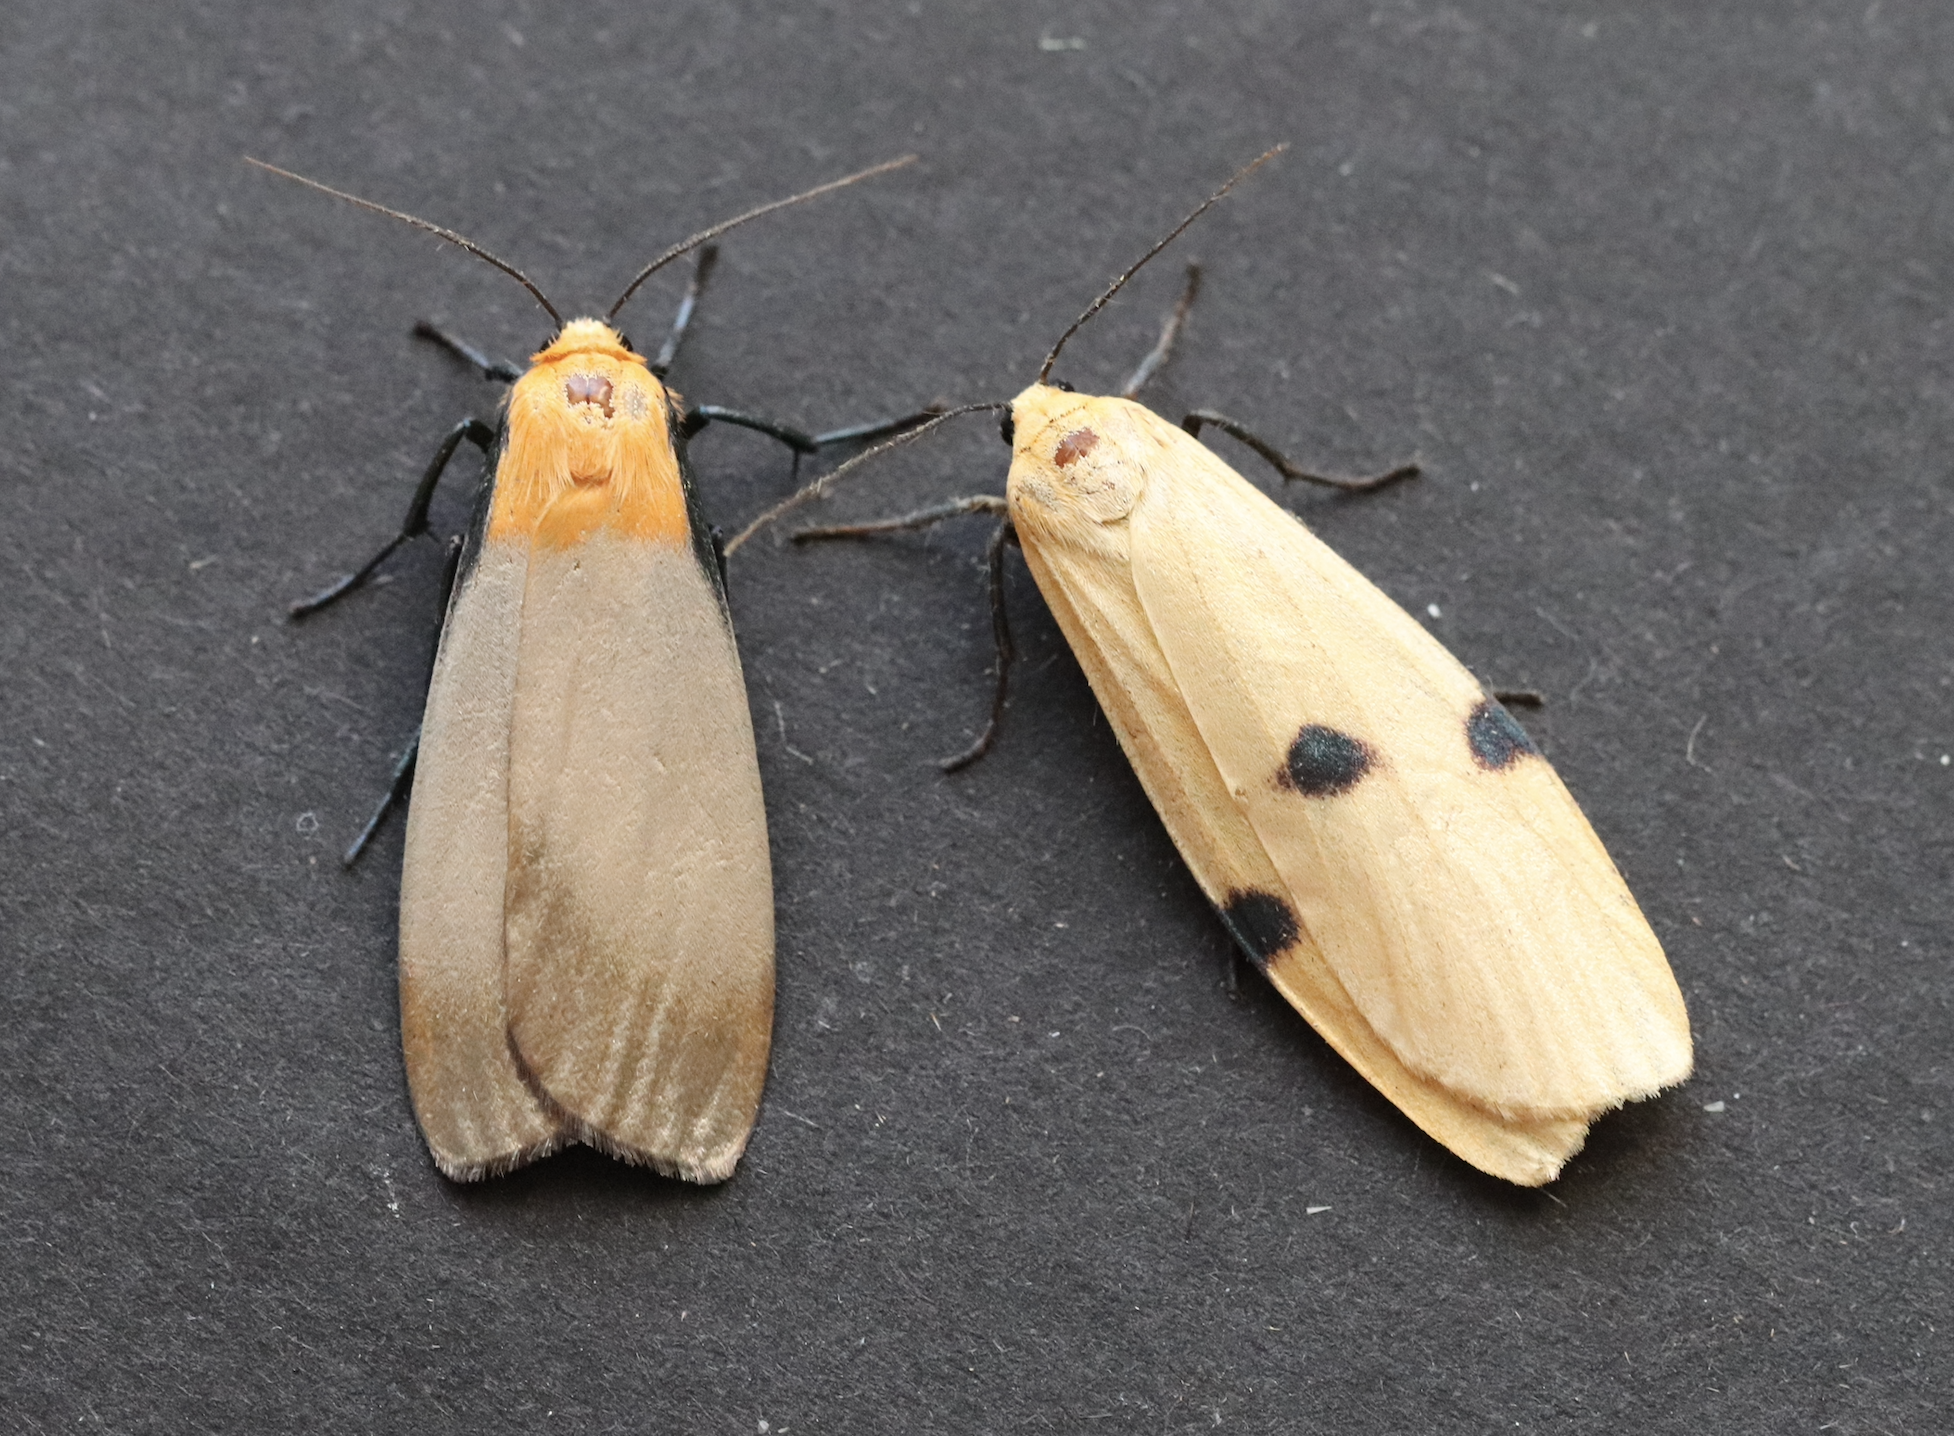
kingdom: Animalia
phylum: Arthropoda
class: Insecta
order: Lepidoptera
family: Erebidae
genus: Lithosia
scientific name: Lithosia quadra
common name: Four-spotted footman
